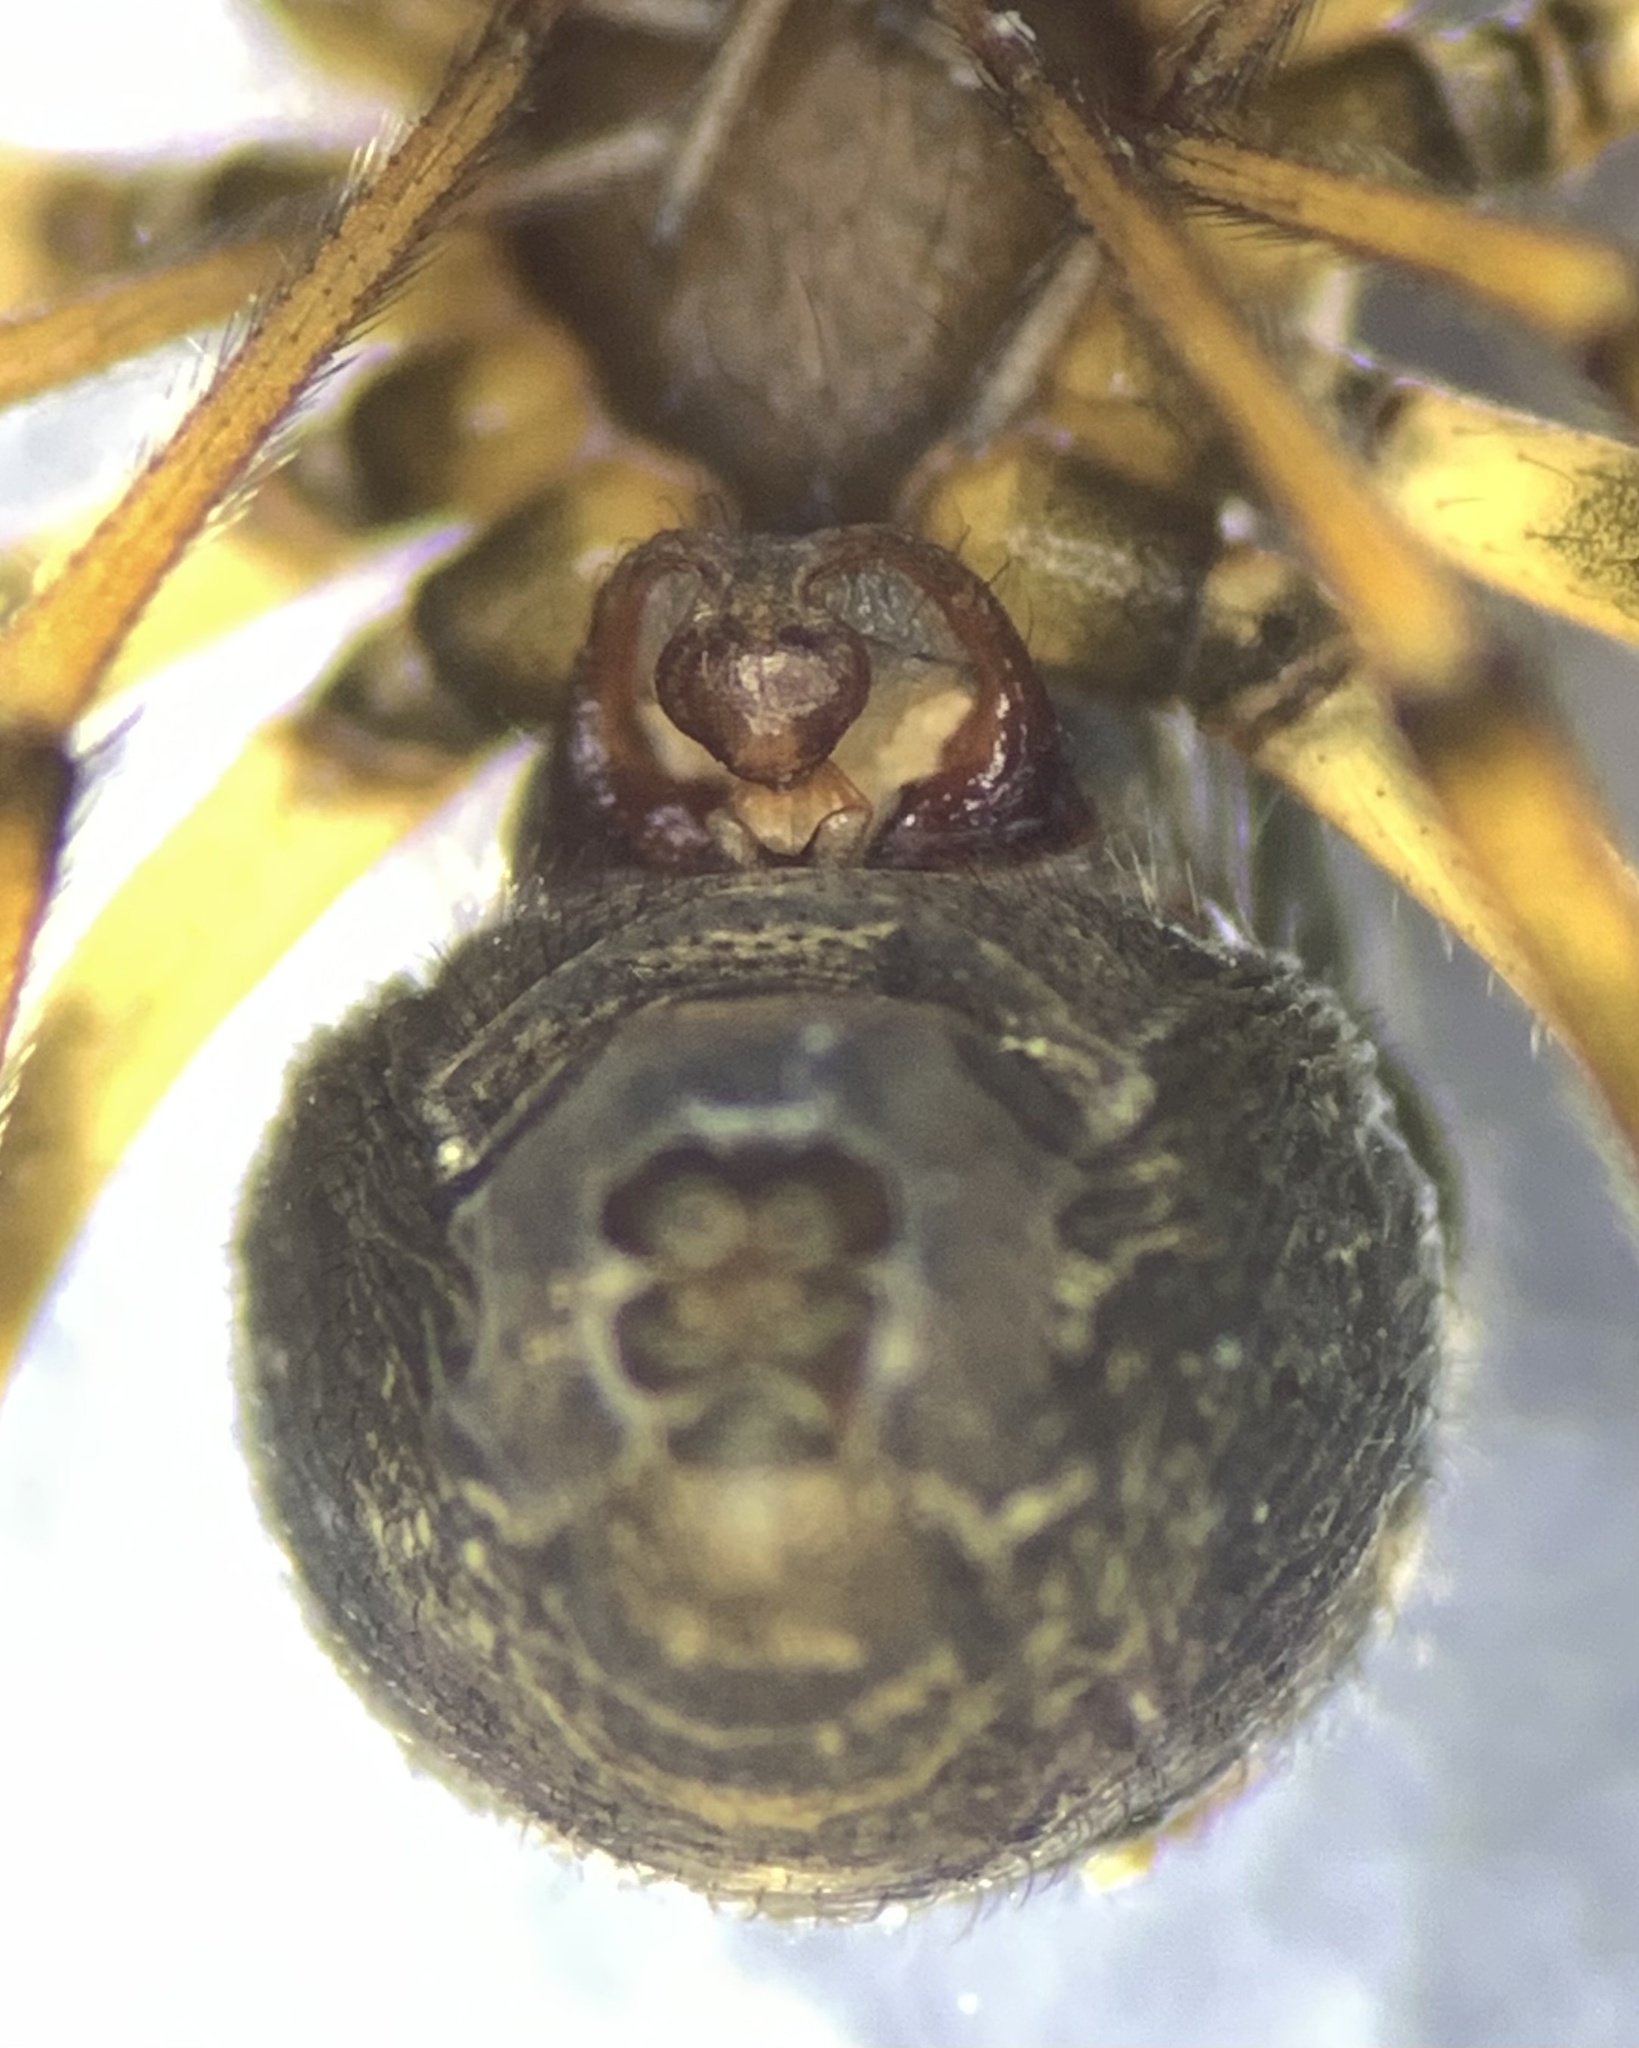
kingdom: Animalia
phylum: Arthropoda
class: Arachnida
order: Araneae
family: Linyphiidae
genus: Tapinopa
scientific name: Tapinopa longidens
